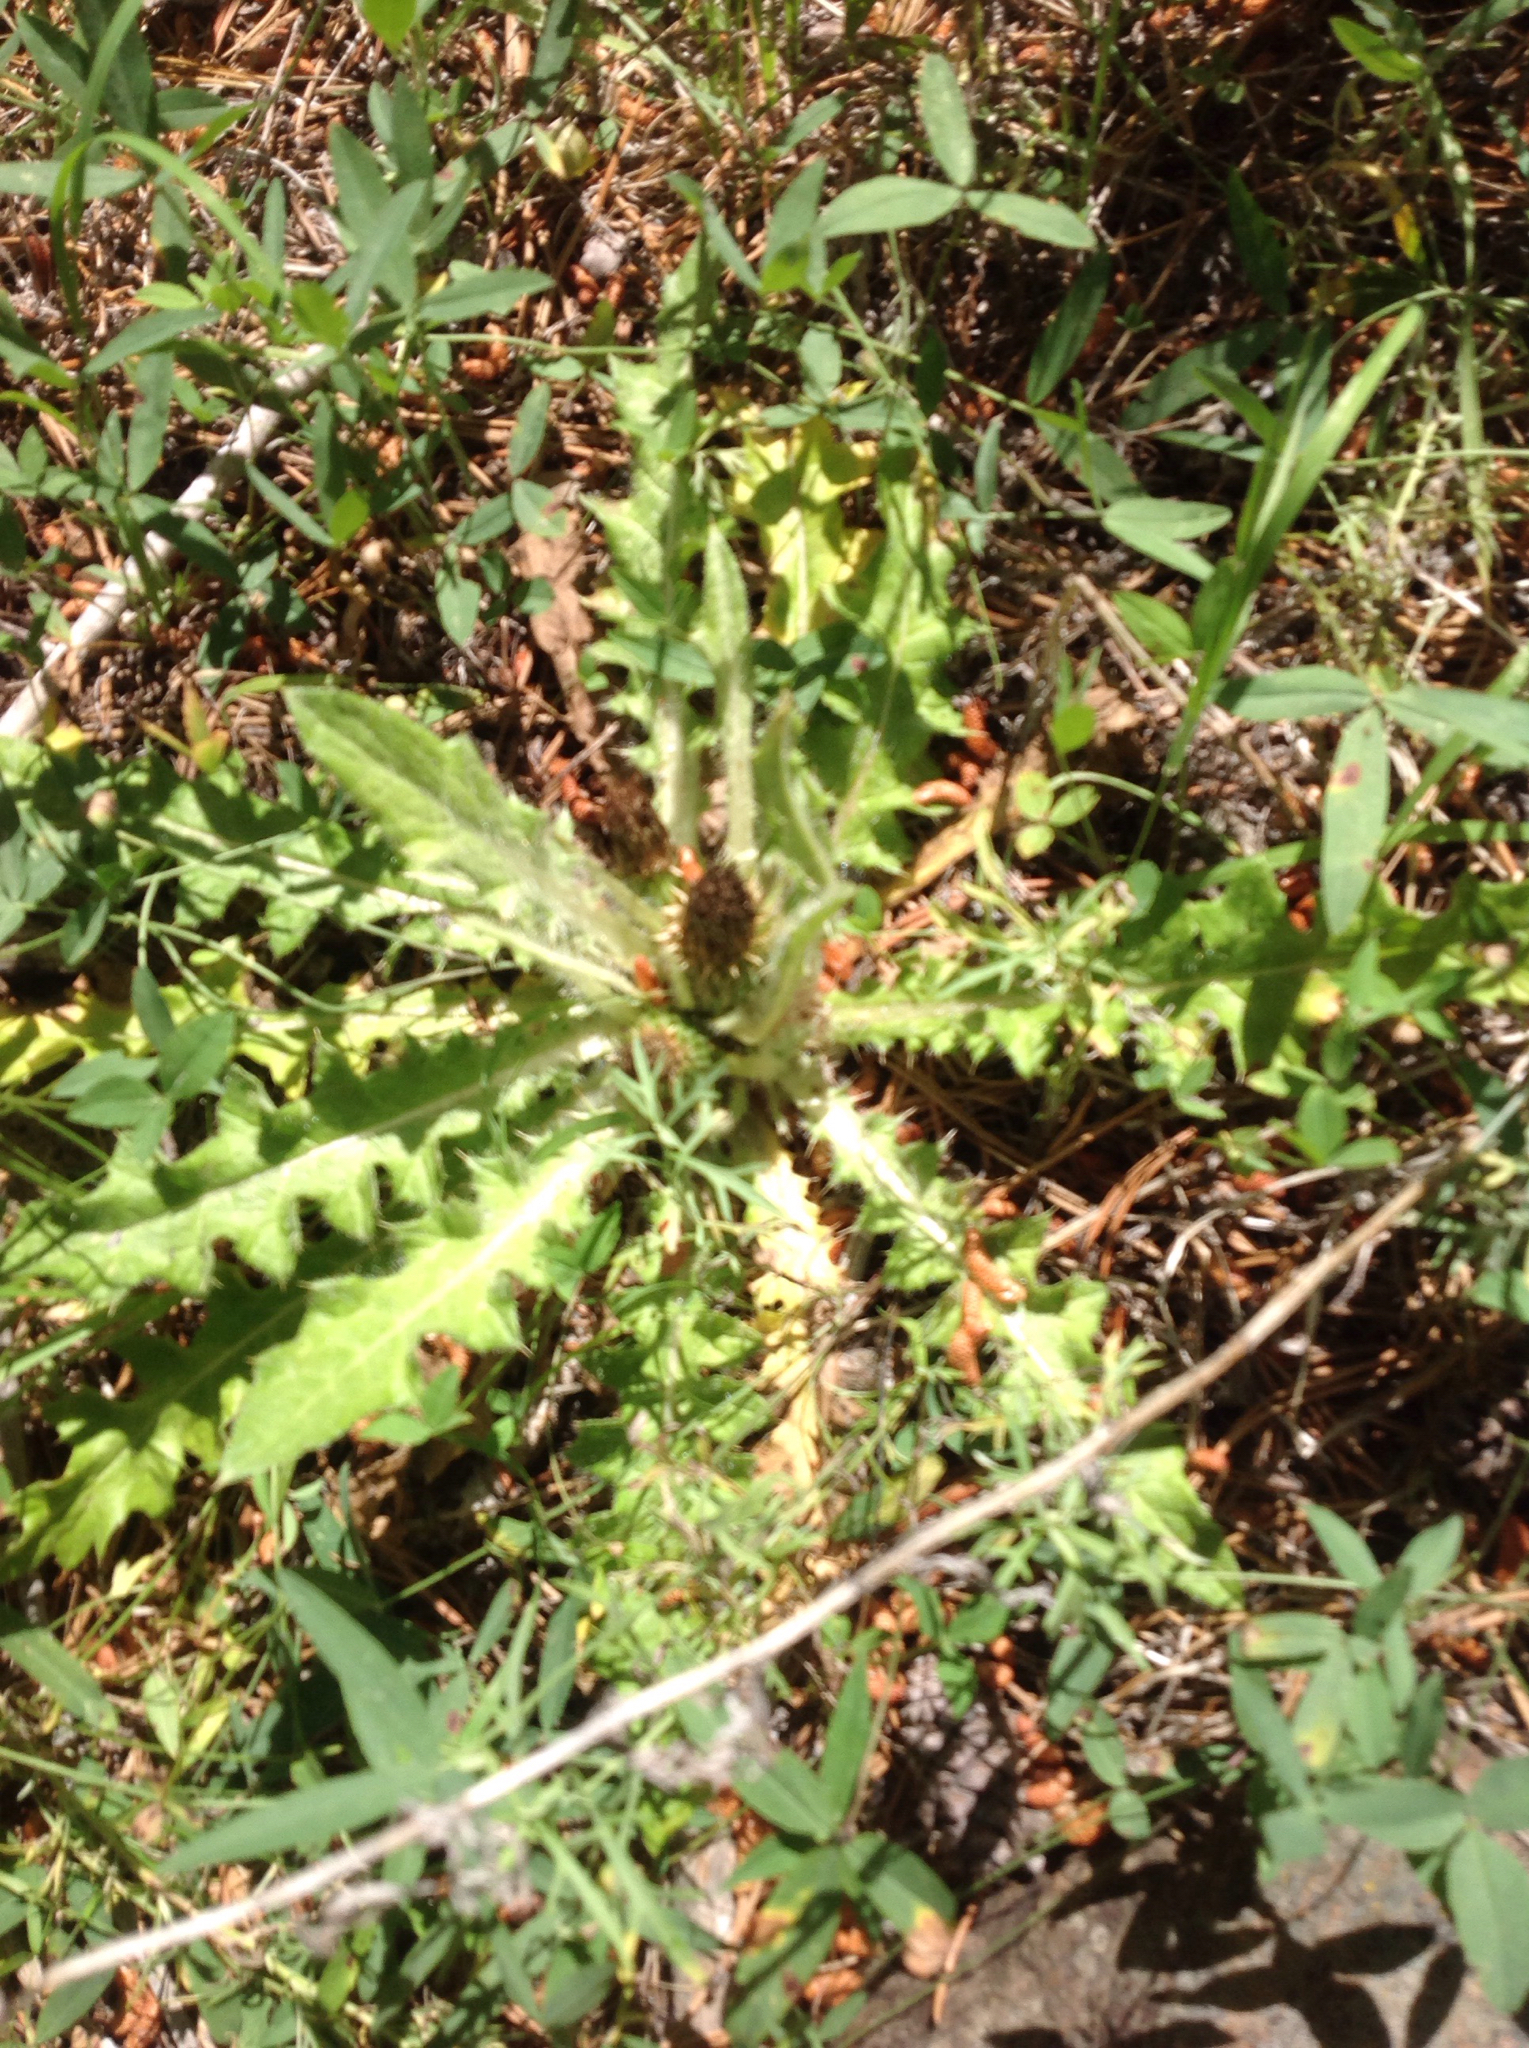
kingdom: Plantae
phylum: Tracheophyta
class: Magnoliopsida
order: Asterales
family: Asteraceae
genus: Cirsium
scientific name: Cirsium scariosum
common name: Meadow thistle
